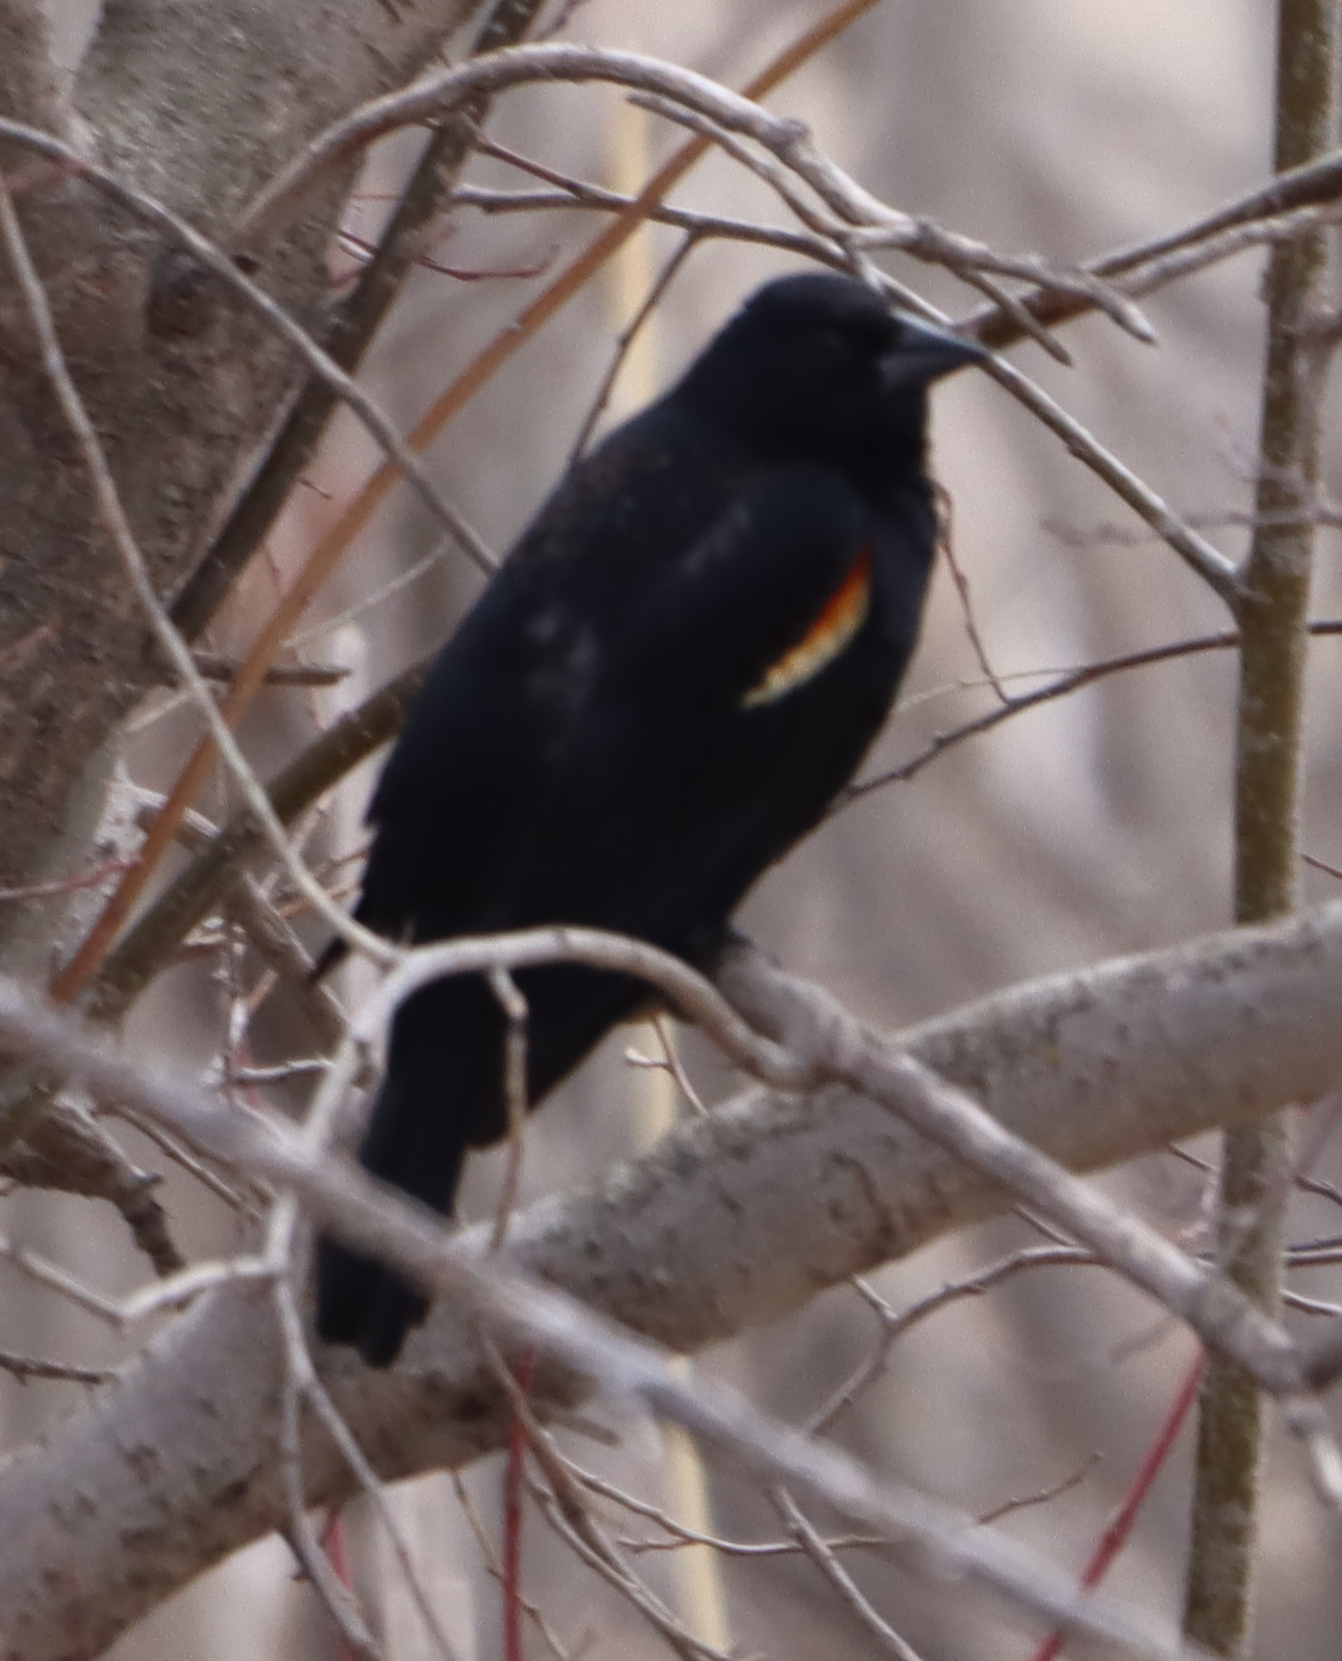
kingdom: Animalia
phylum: Chordata
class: Aves
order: Passeriformes
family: Icteridae
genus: Agelaius
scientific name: Agelaius phoeniceus
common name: Red-winged blackbird
